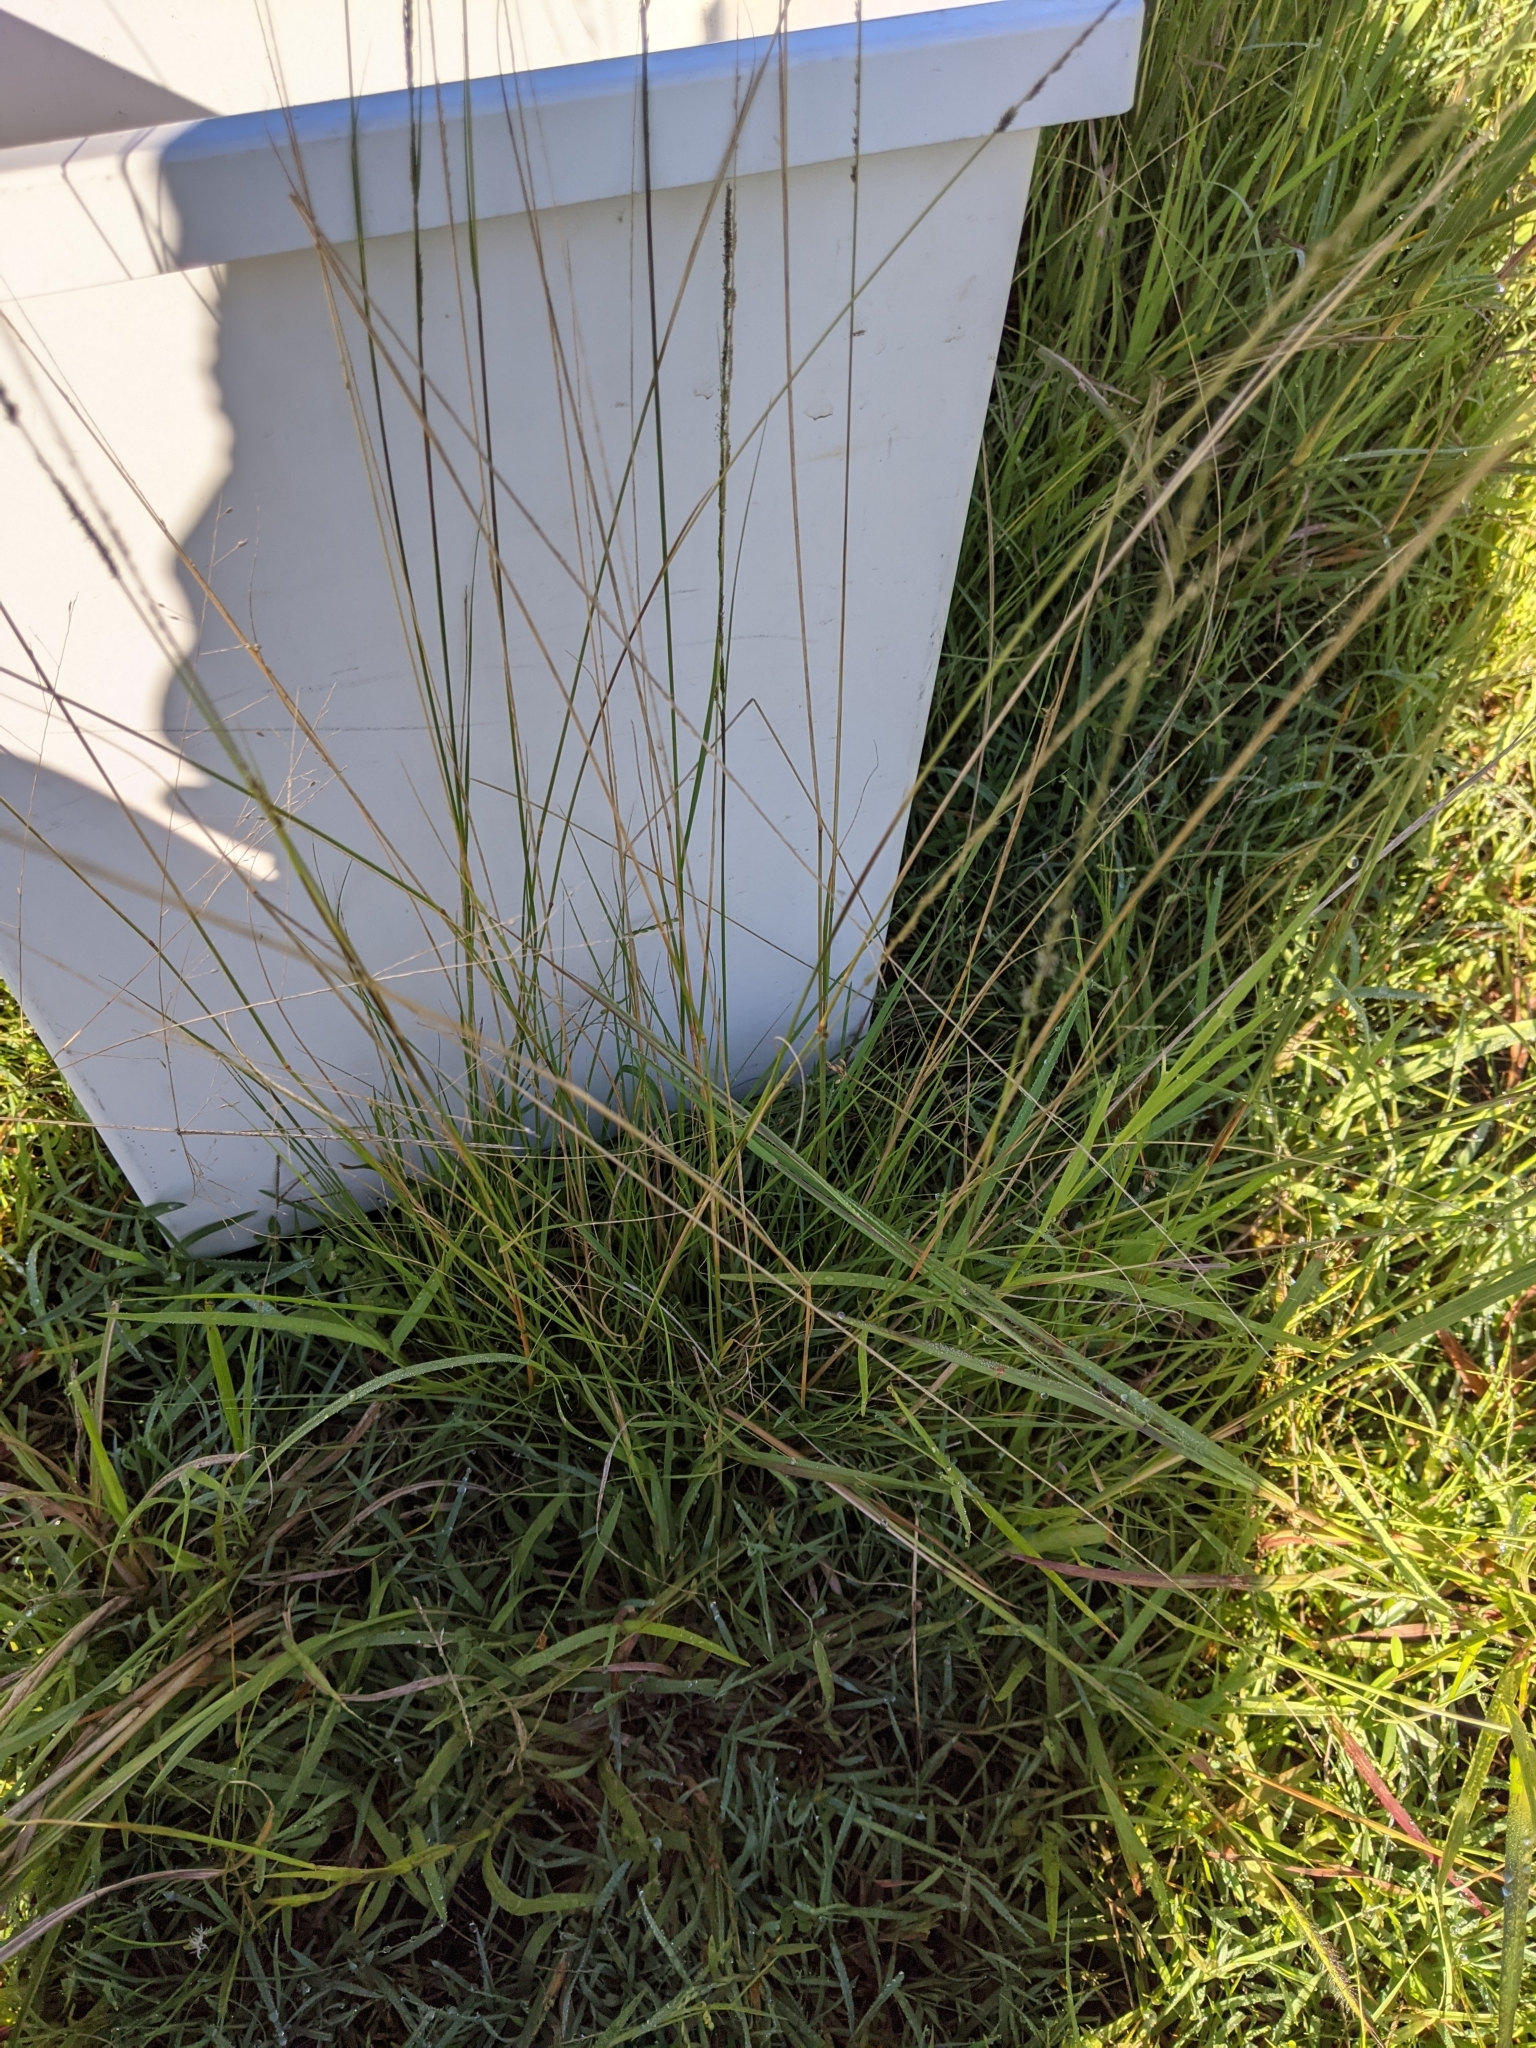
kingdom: Plantae
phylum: Tracheophyta
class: Liliopsida
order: Poales
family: Poaceae
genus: Sporobolus
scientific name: Sporobolus elongatus
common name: Rat tail grass
